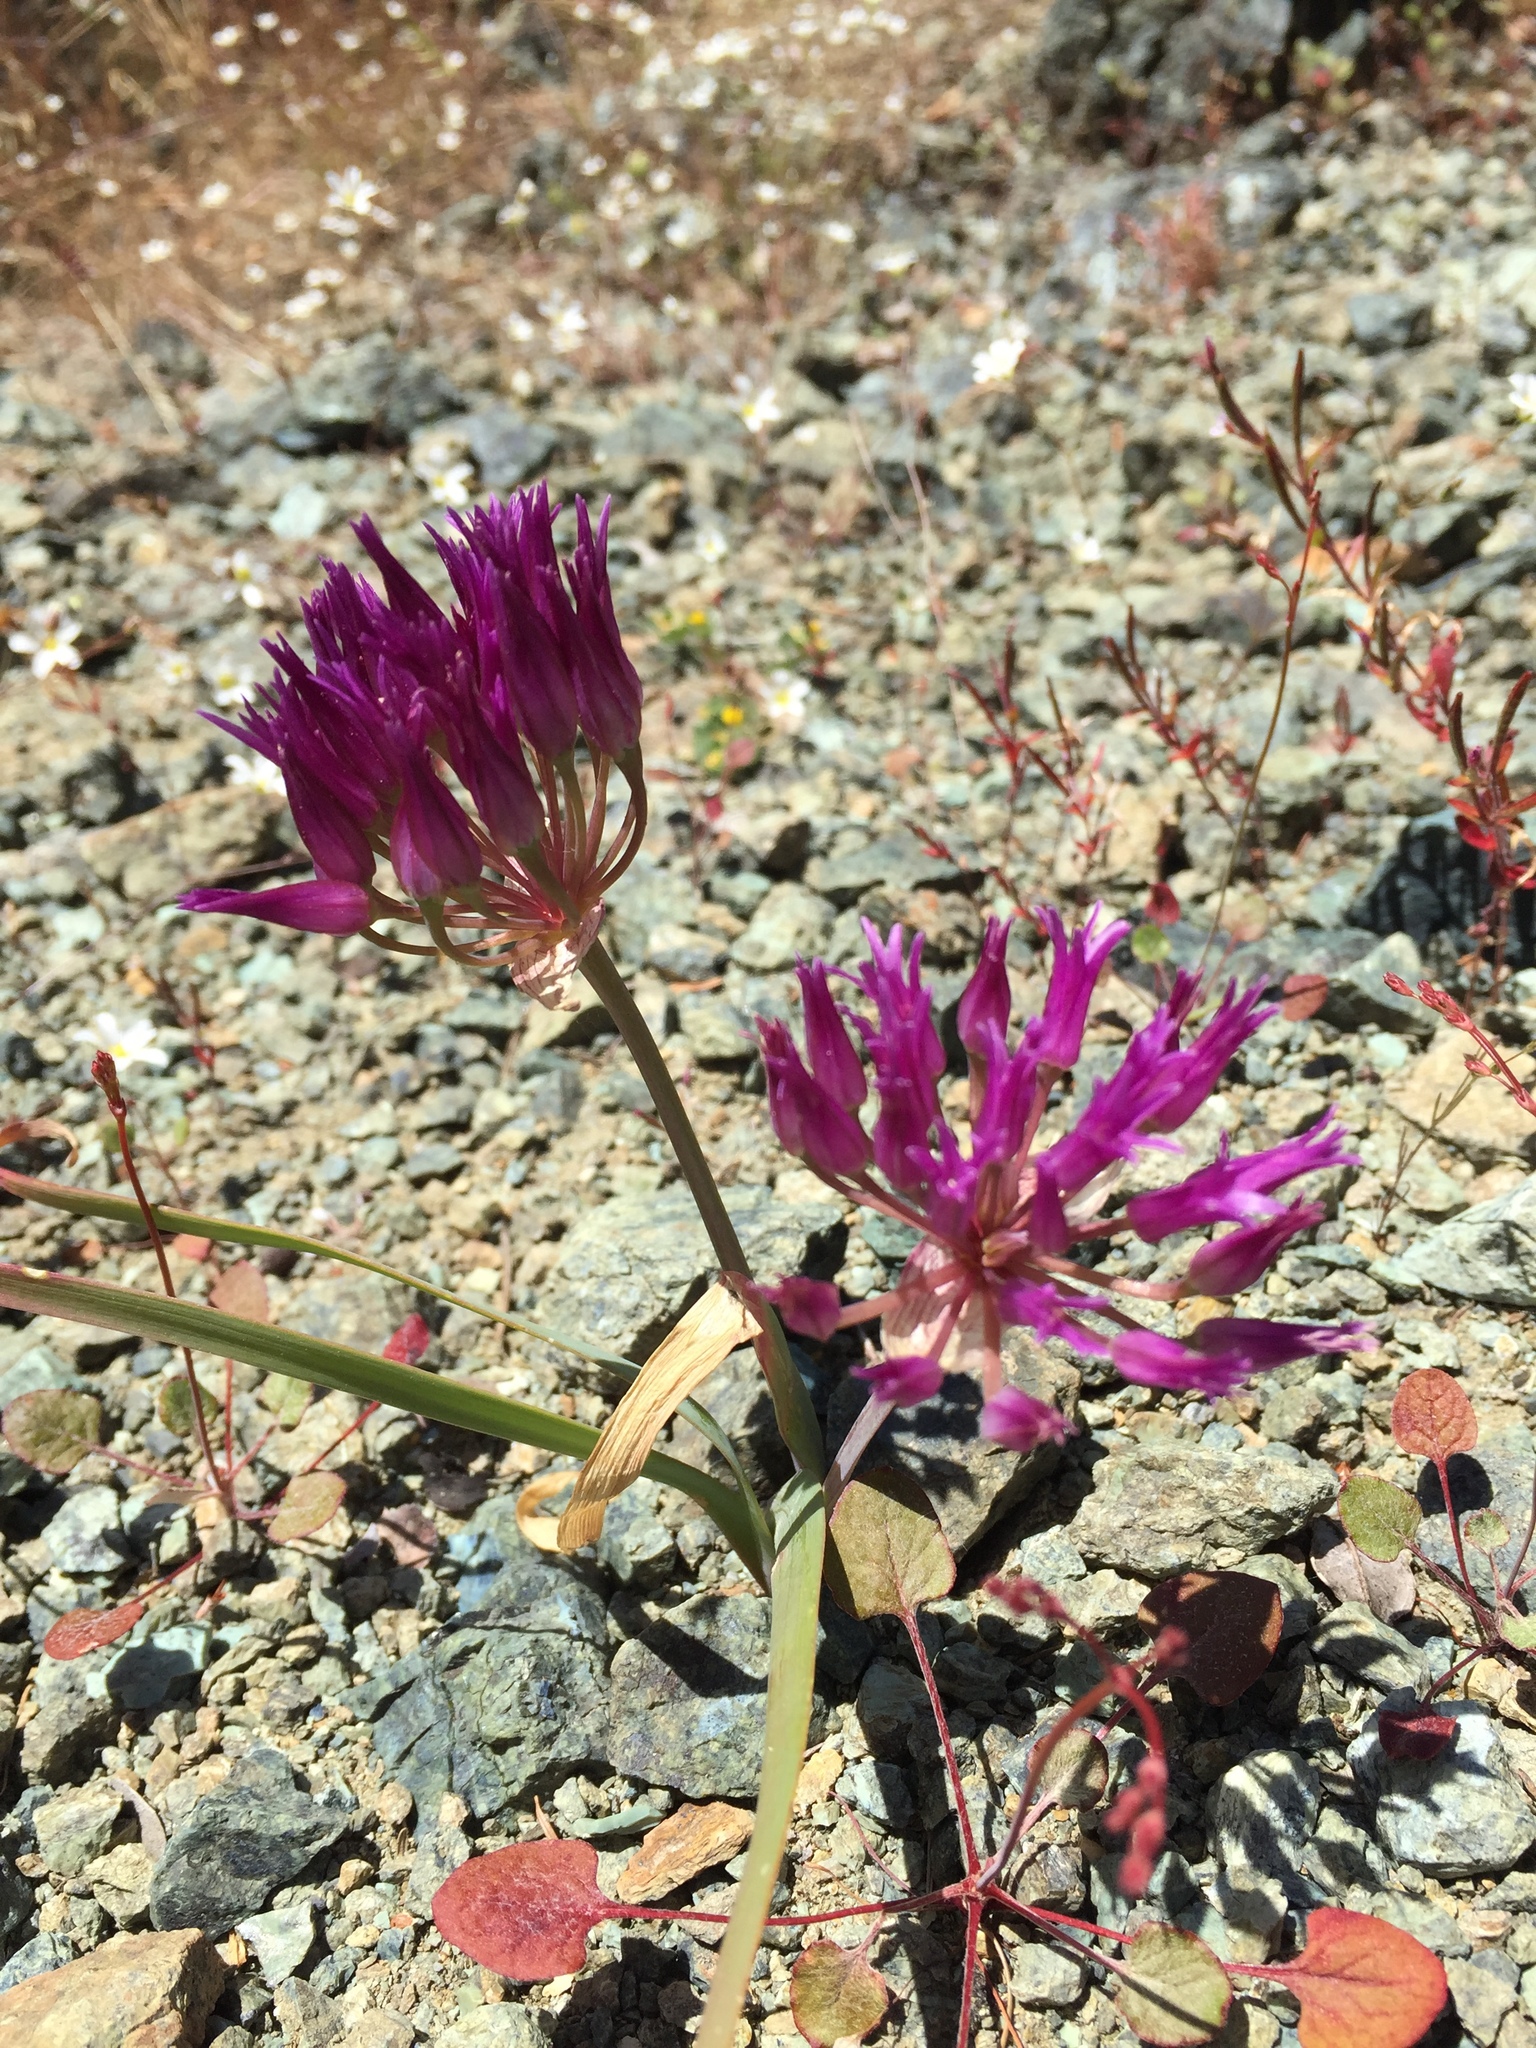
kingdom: Plantae
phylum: Tracheophyta
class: Liliopsida
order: Asparagales
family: Amaryllidaceae
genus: Allium
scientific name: Allium falcifolium
